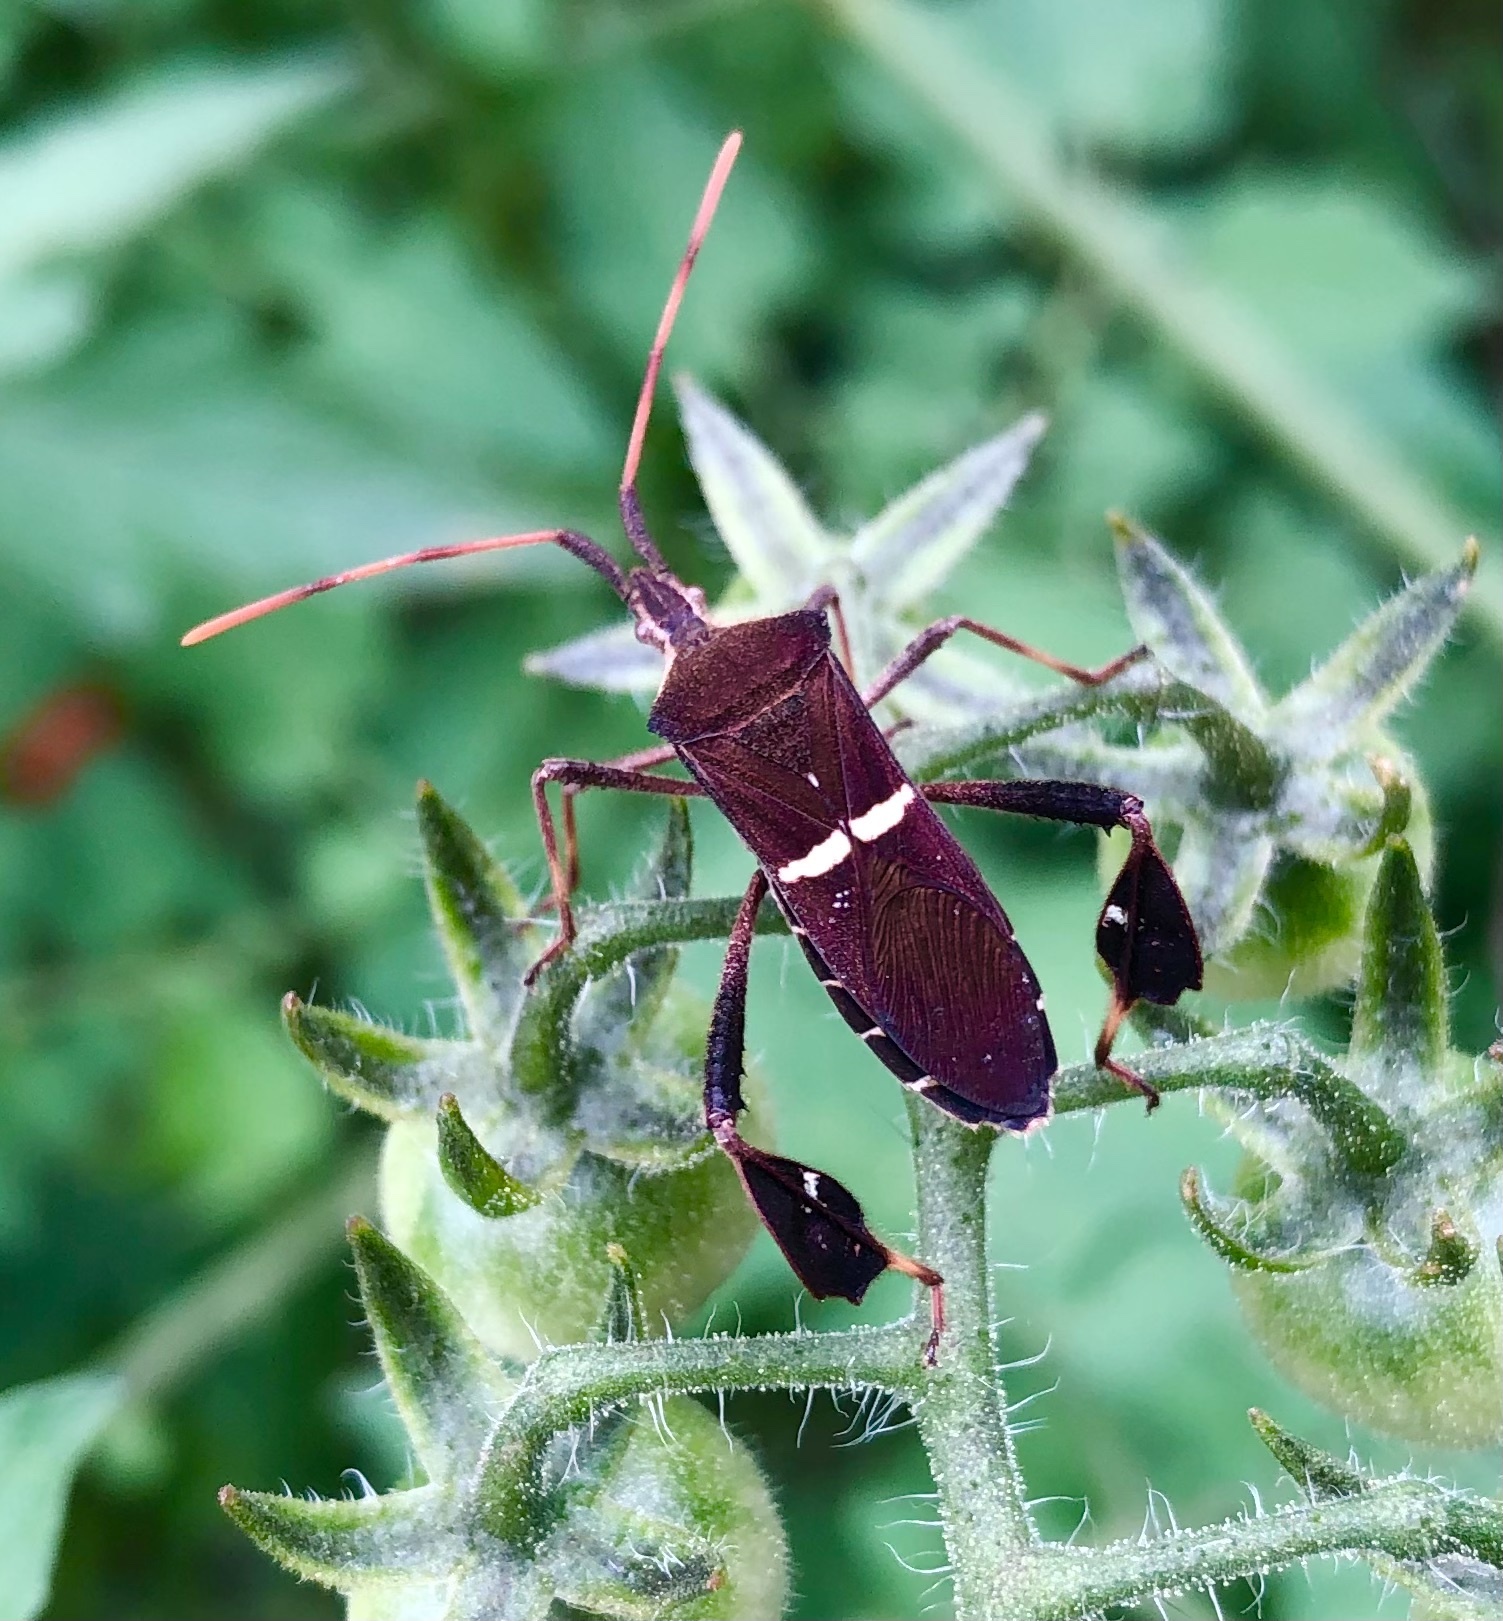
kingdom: Animalia
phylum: Arthropoda
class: Insecta
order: Hemiptera
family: Coreidae
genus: Leptoglossus
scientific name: Leptoglossus phyllopus
